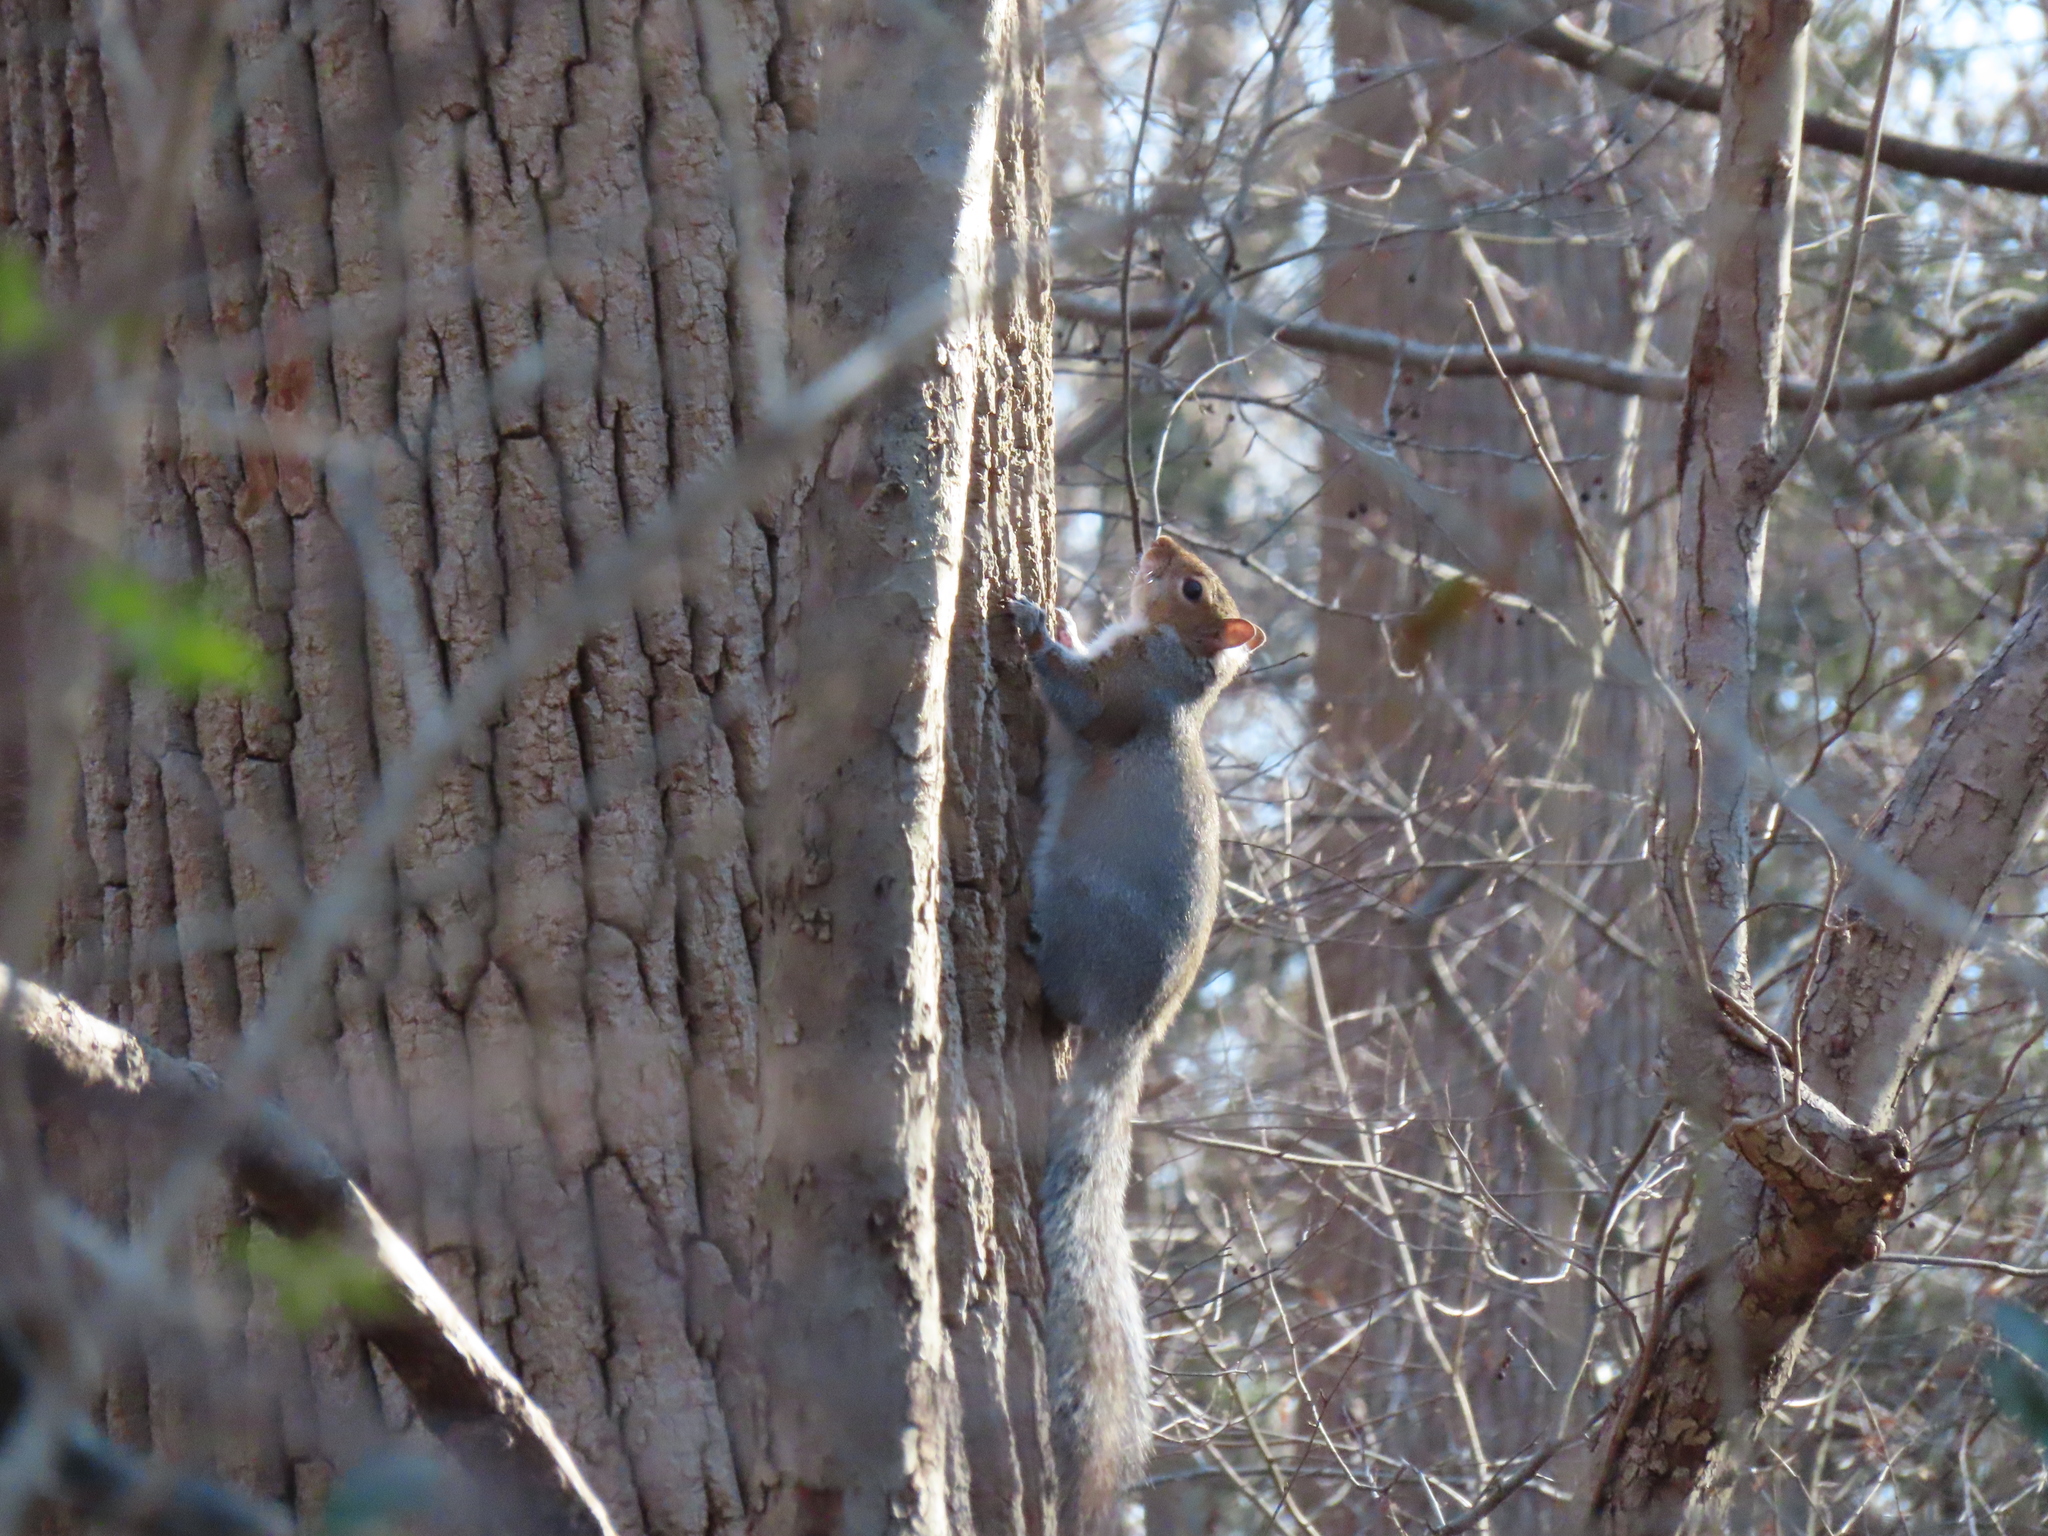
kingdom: Animalia
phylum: Chordata
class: Mammalia
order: Rodentia
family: Sciuridae
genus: Sciurus
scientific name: Sciurus carolinensis
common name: Eastern gray squirrel
